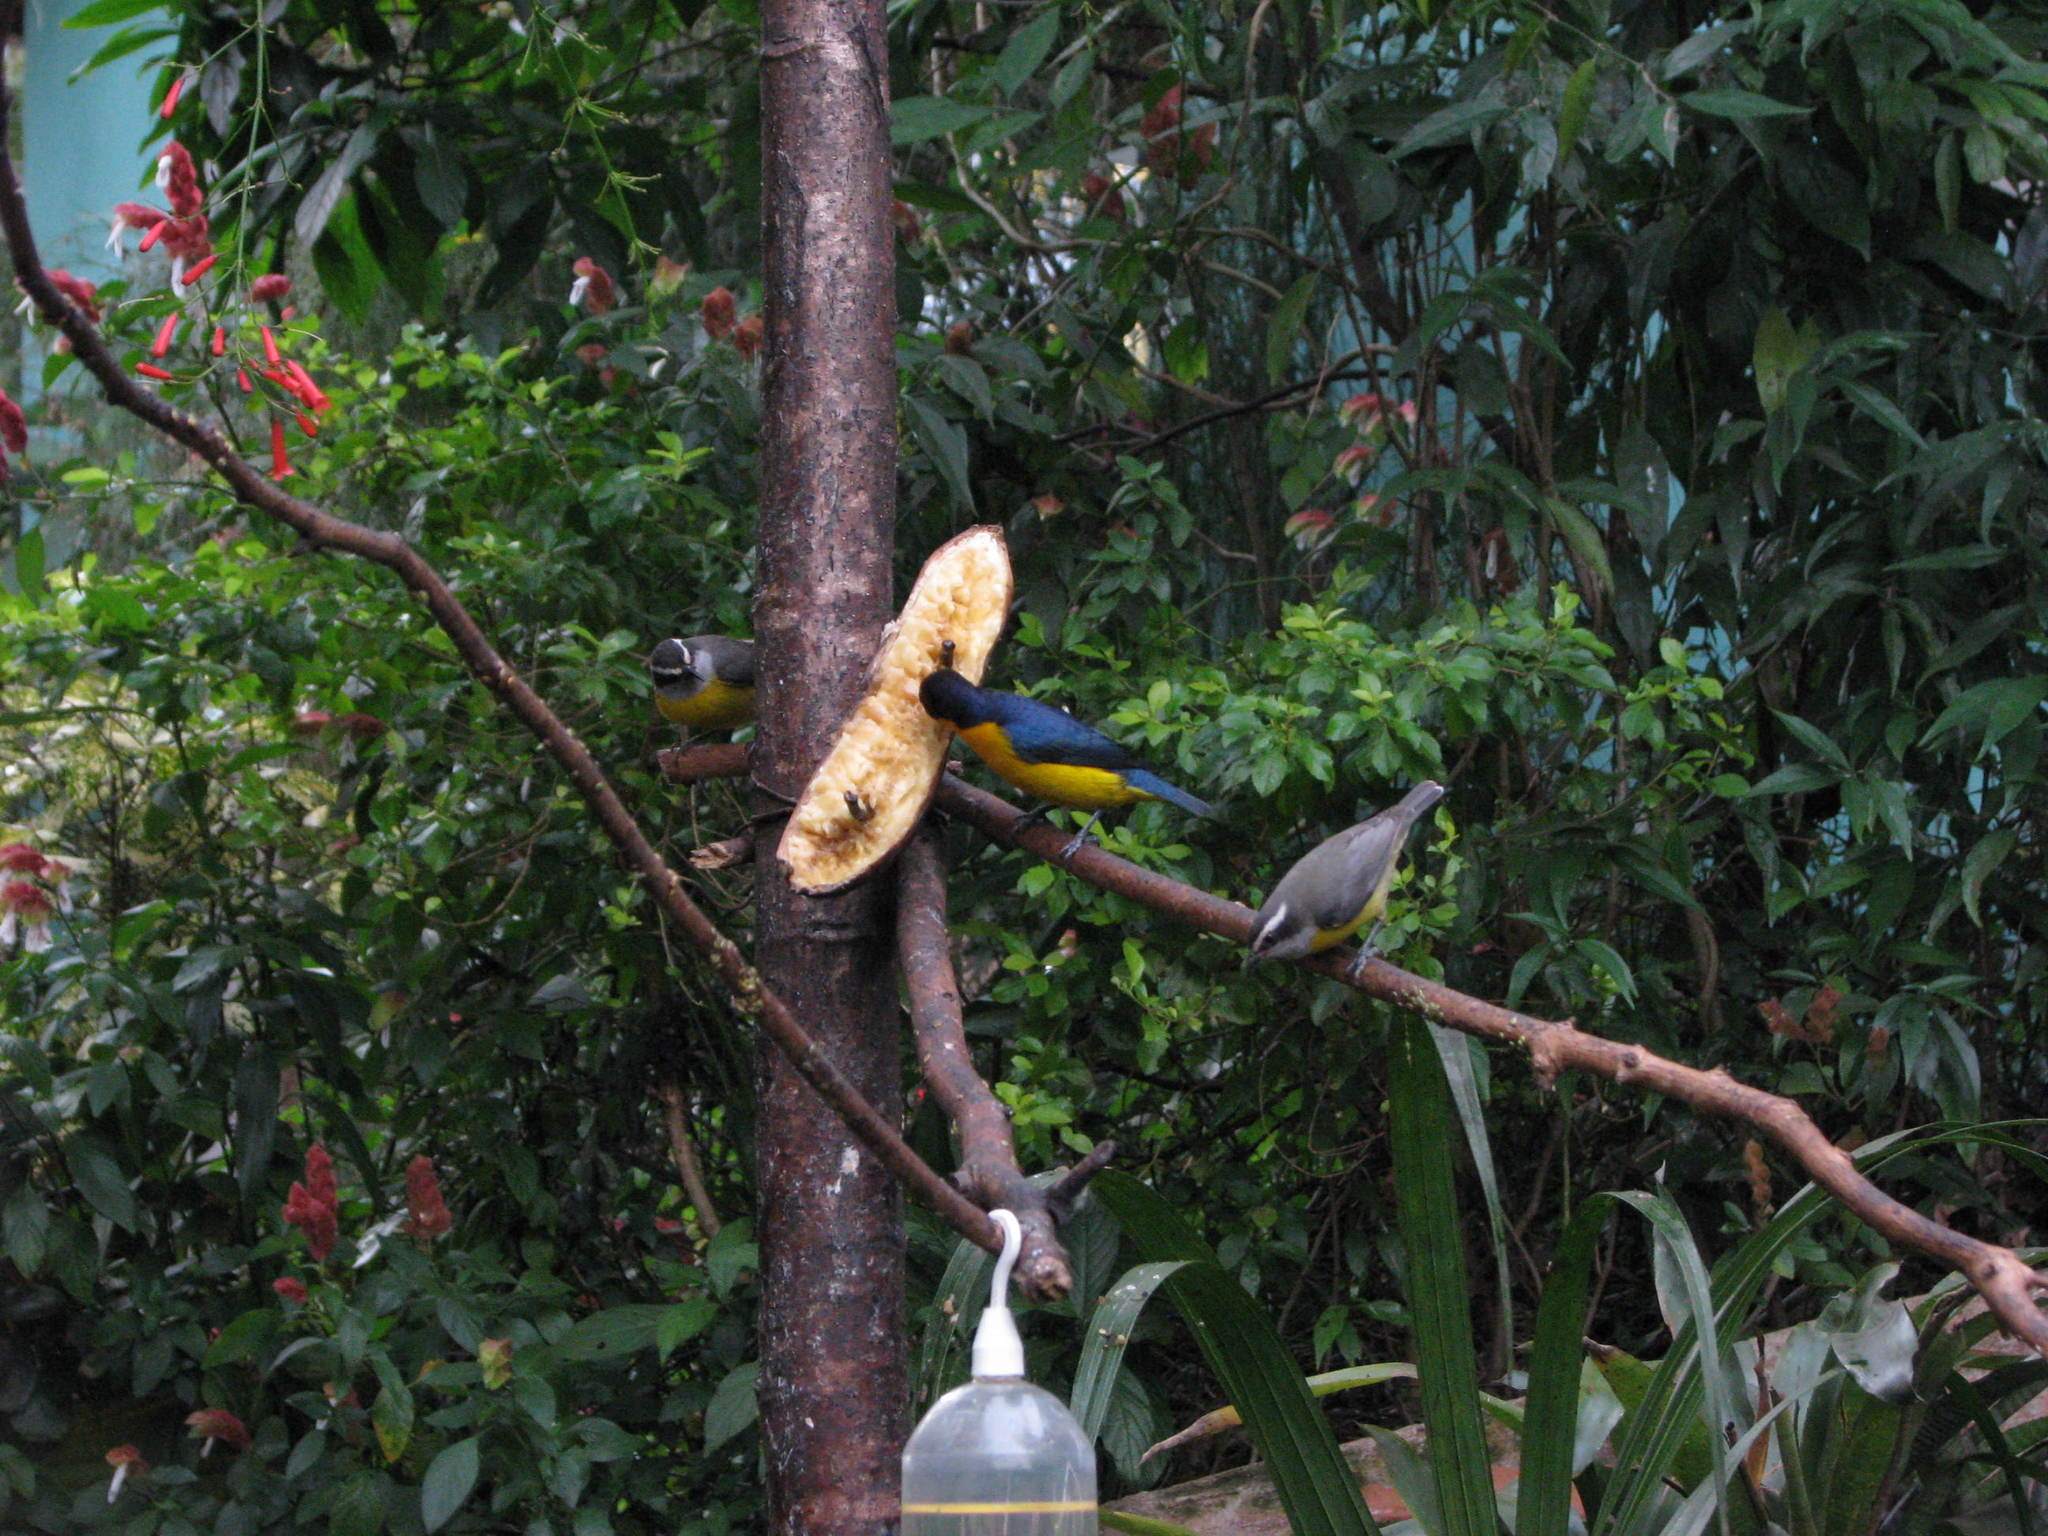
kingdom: Animalia
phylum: Chordata
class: Aves
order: Passeriformes
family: Fringillidae
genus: Euphonia
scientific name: Euphonia violacea
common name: Violaceous euphonia
